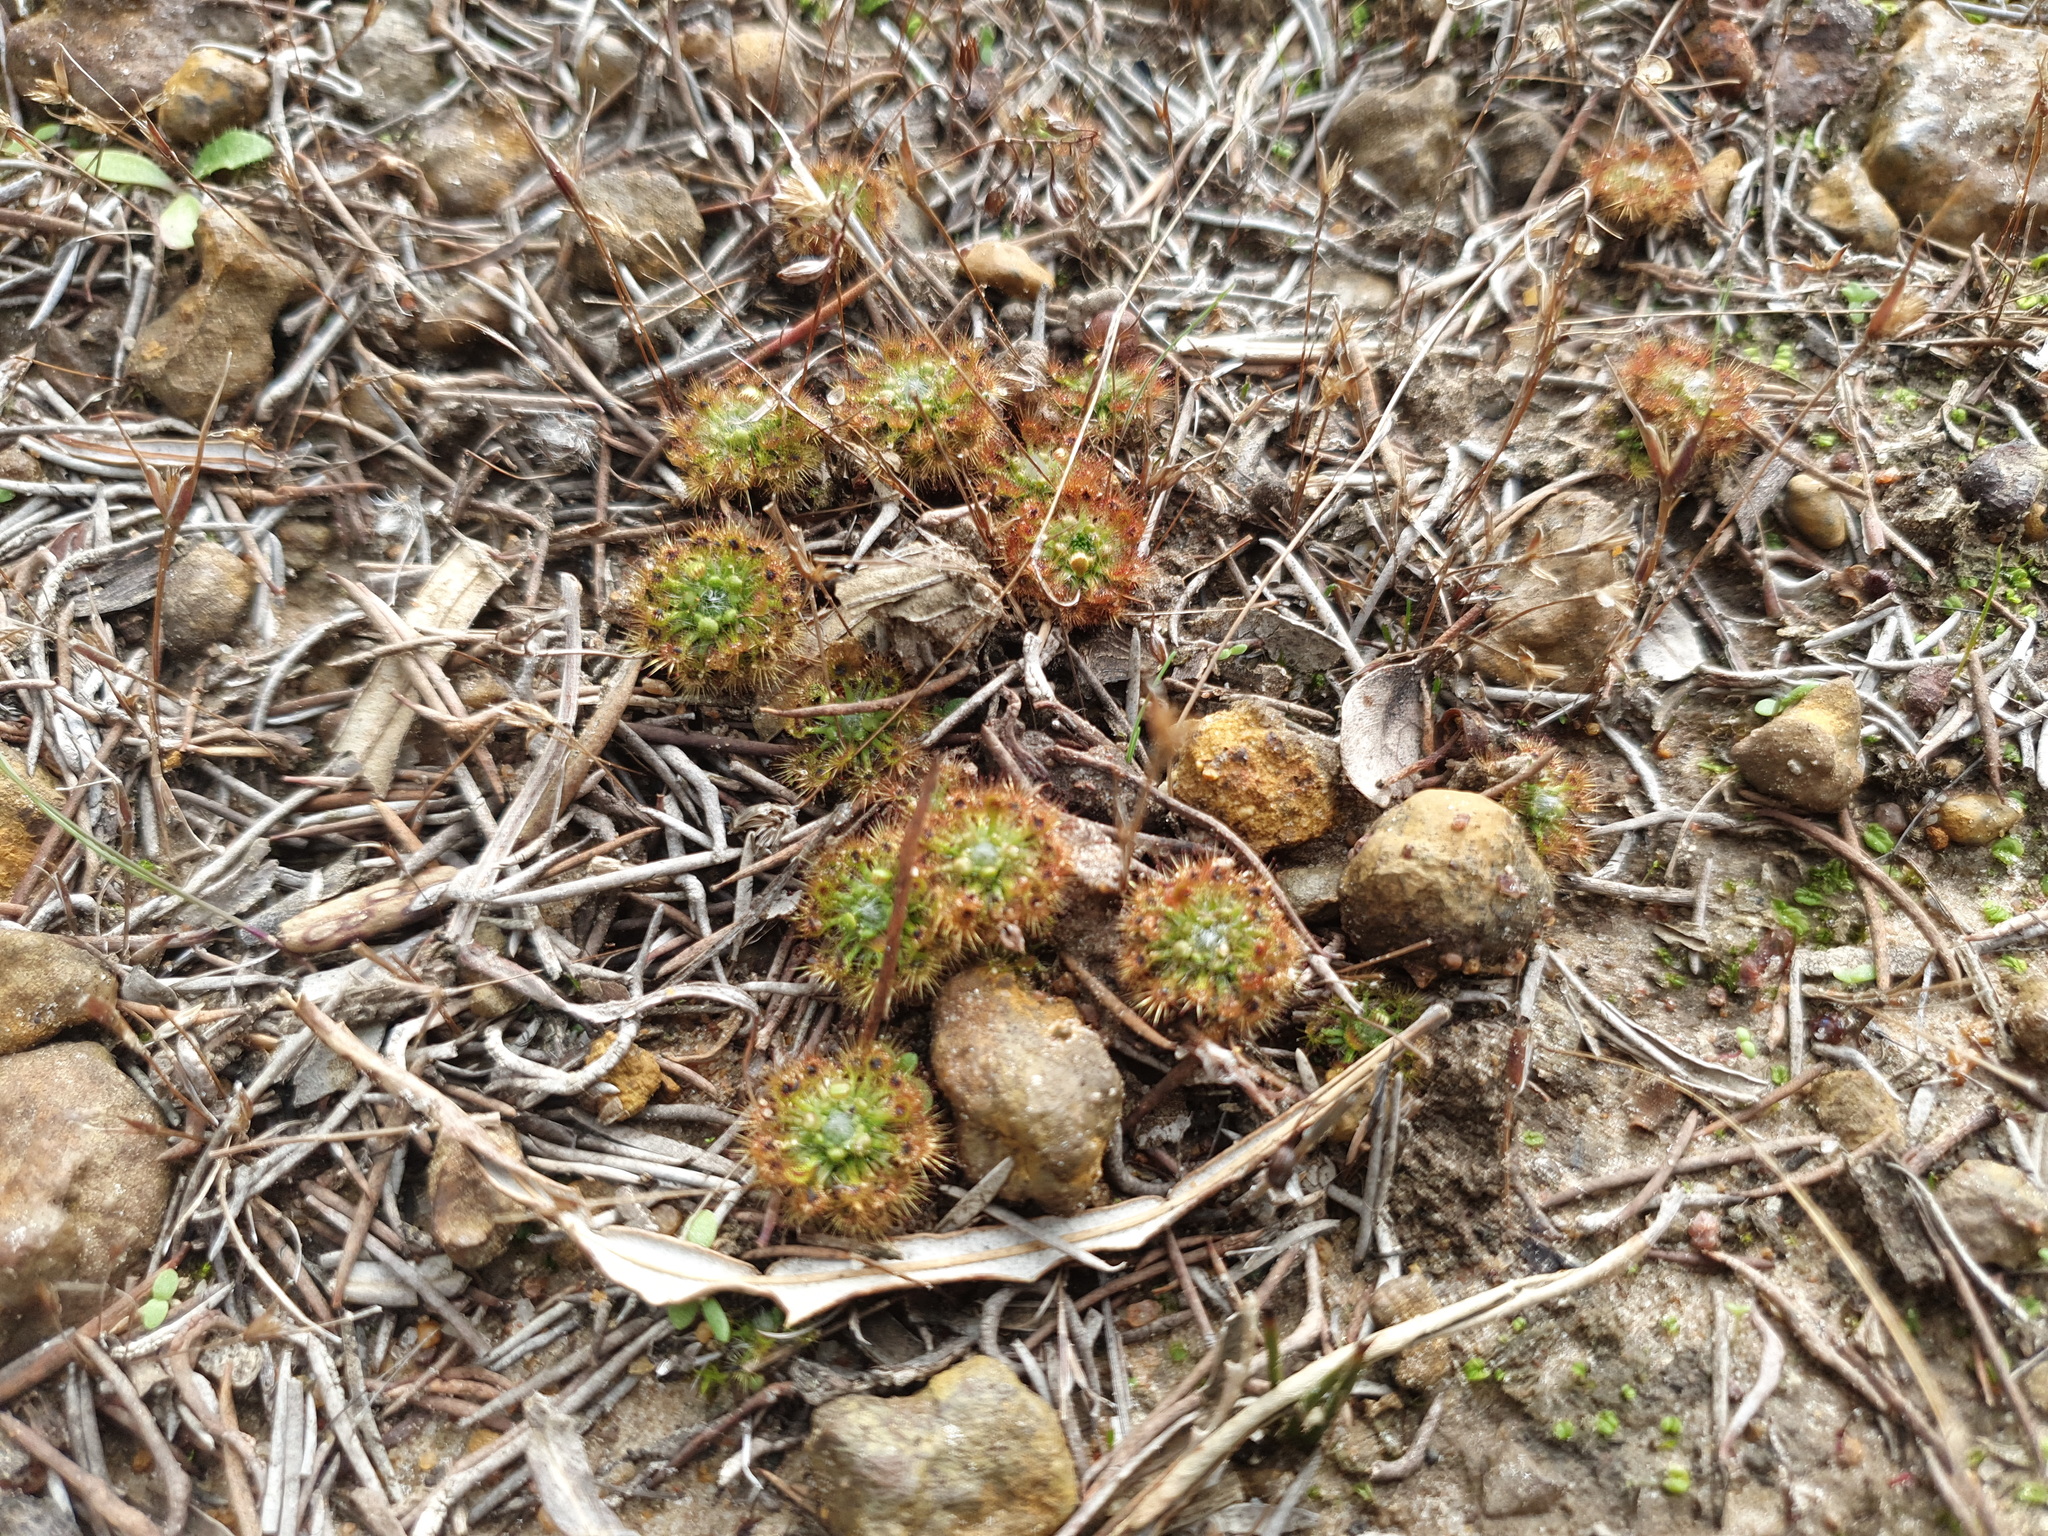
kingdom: Plantae
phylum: Tracheophyta
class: Magnoliopsida
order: Caryophyllales
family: Droseraceae
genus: Drosera
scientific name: Drosera nitidula
